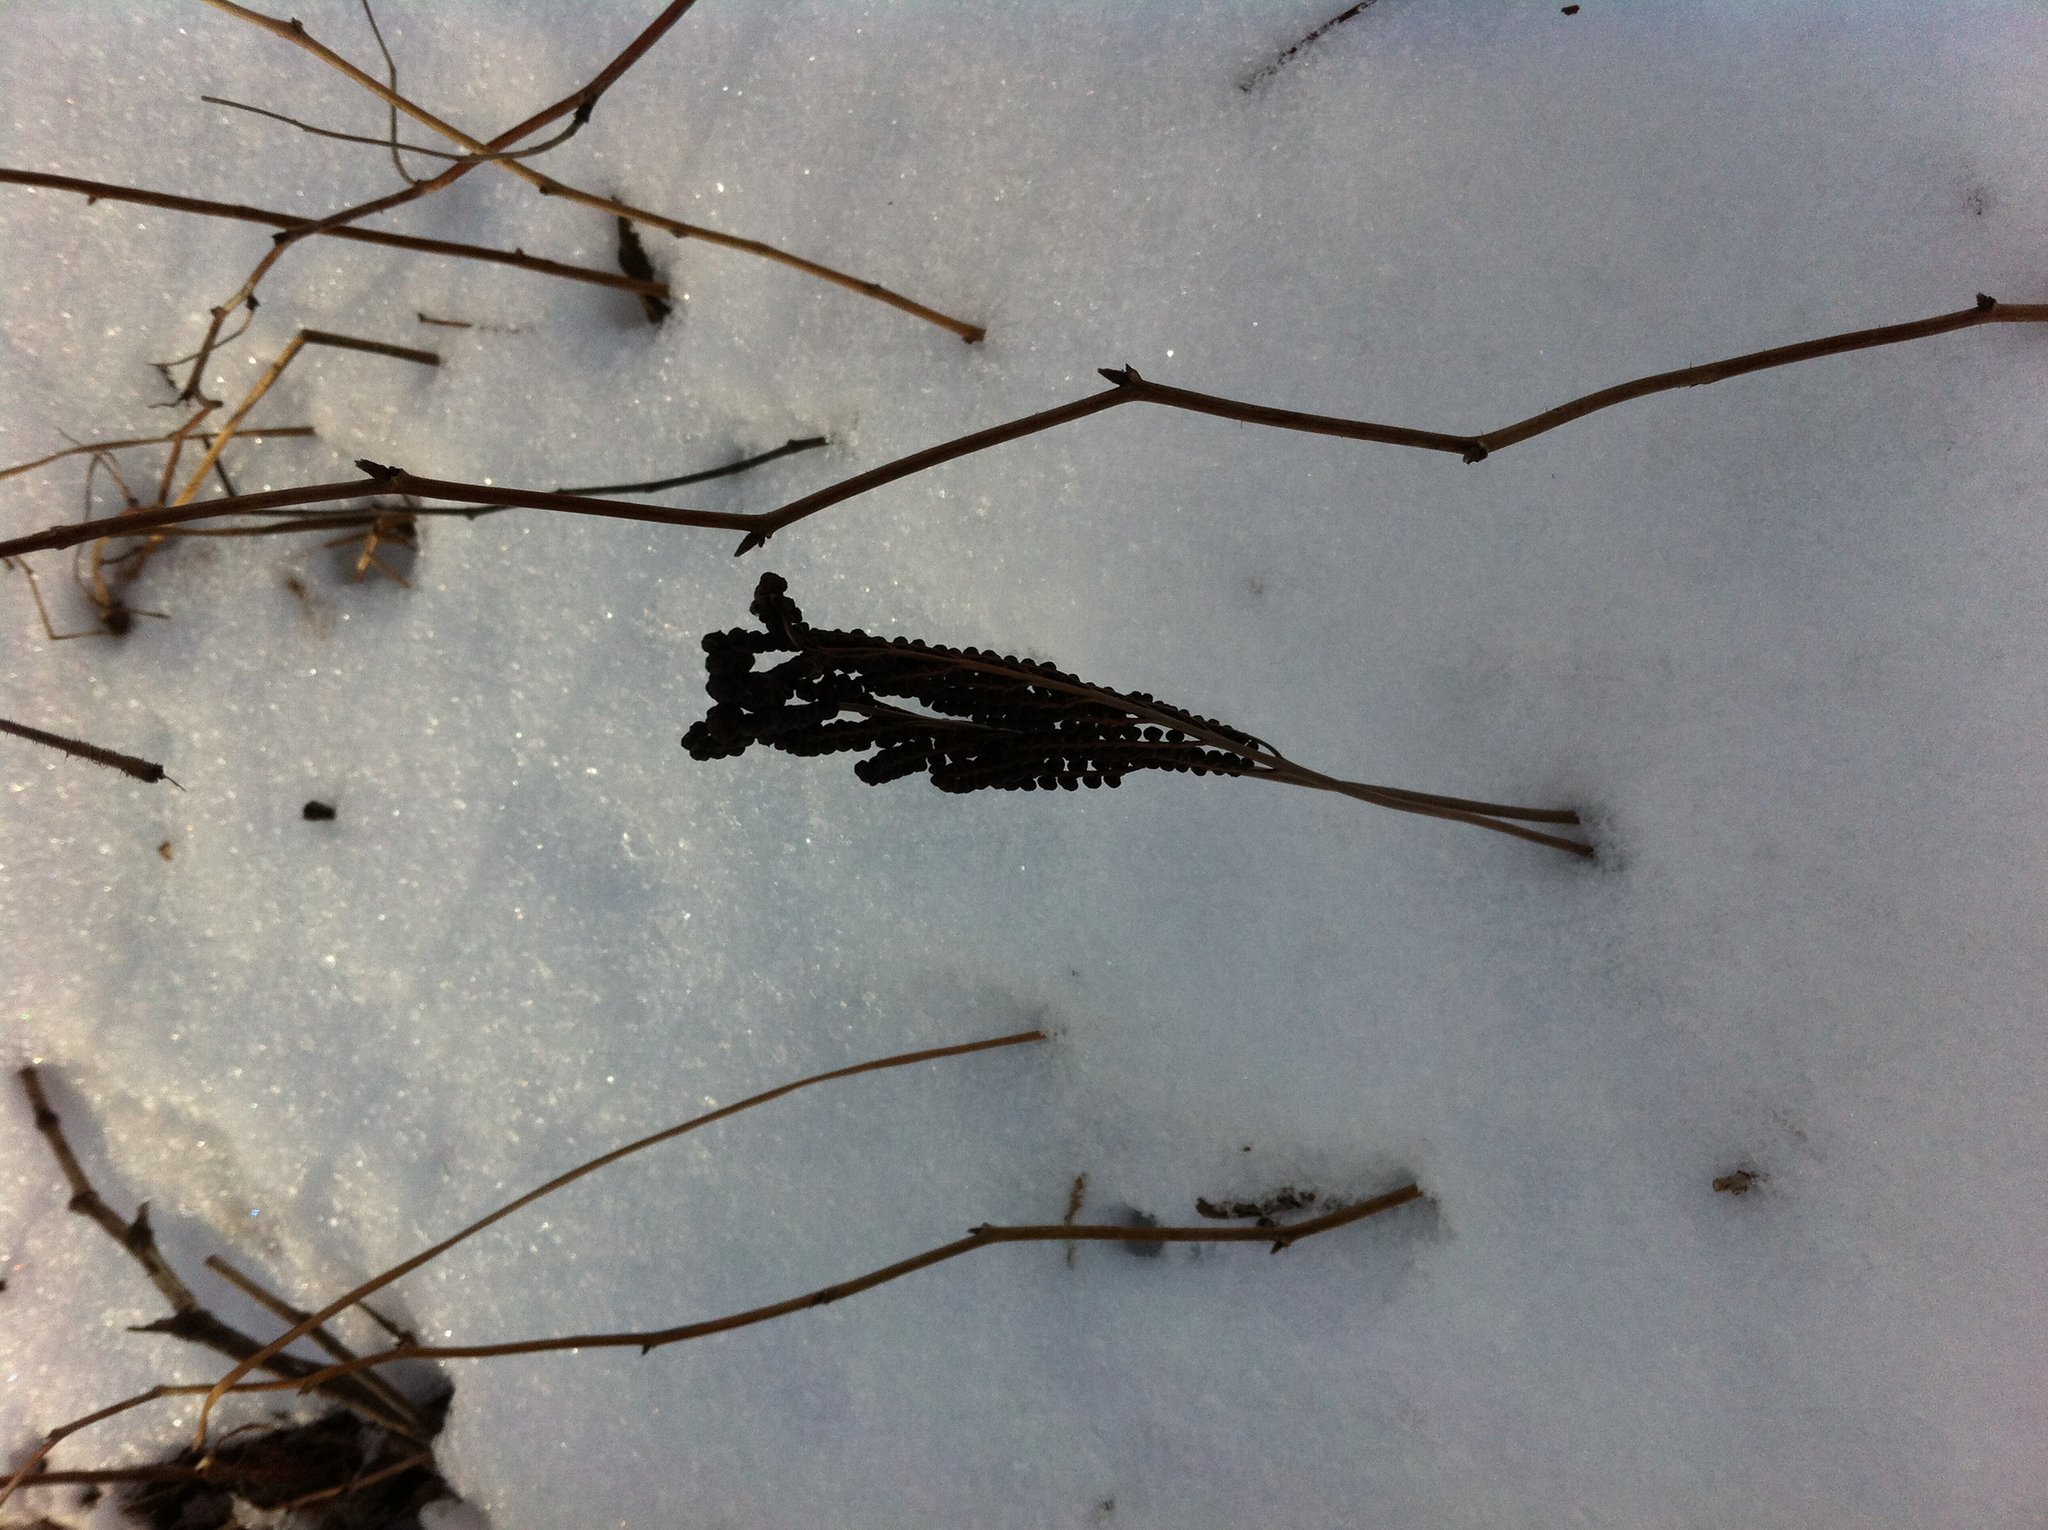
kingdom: Plantae
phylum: Tracheophyta
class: Polypodiopsida
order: Polypodiales
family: Onocleaceae
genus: Onoclea
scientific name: Onoclea sensibilis
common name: Sensitive fern
